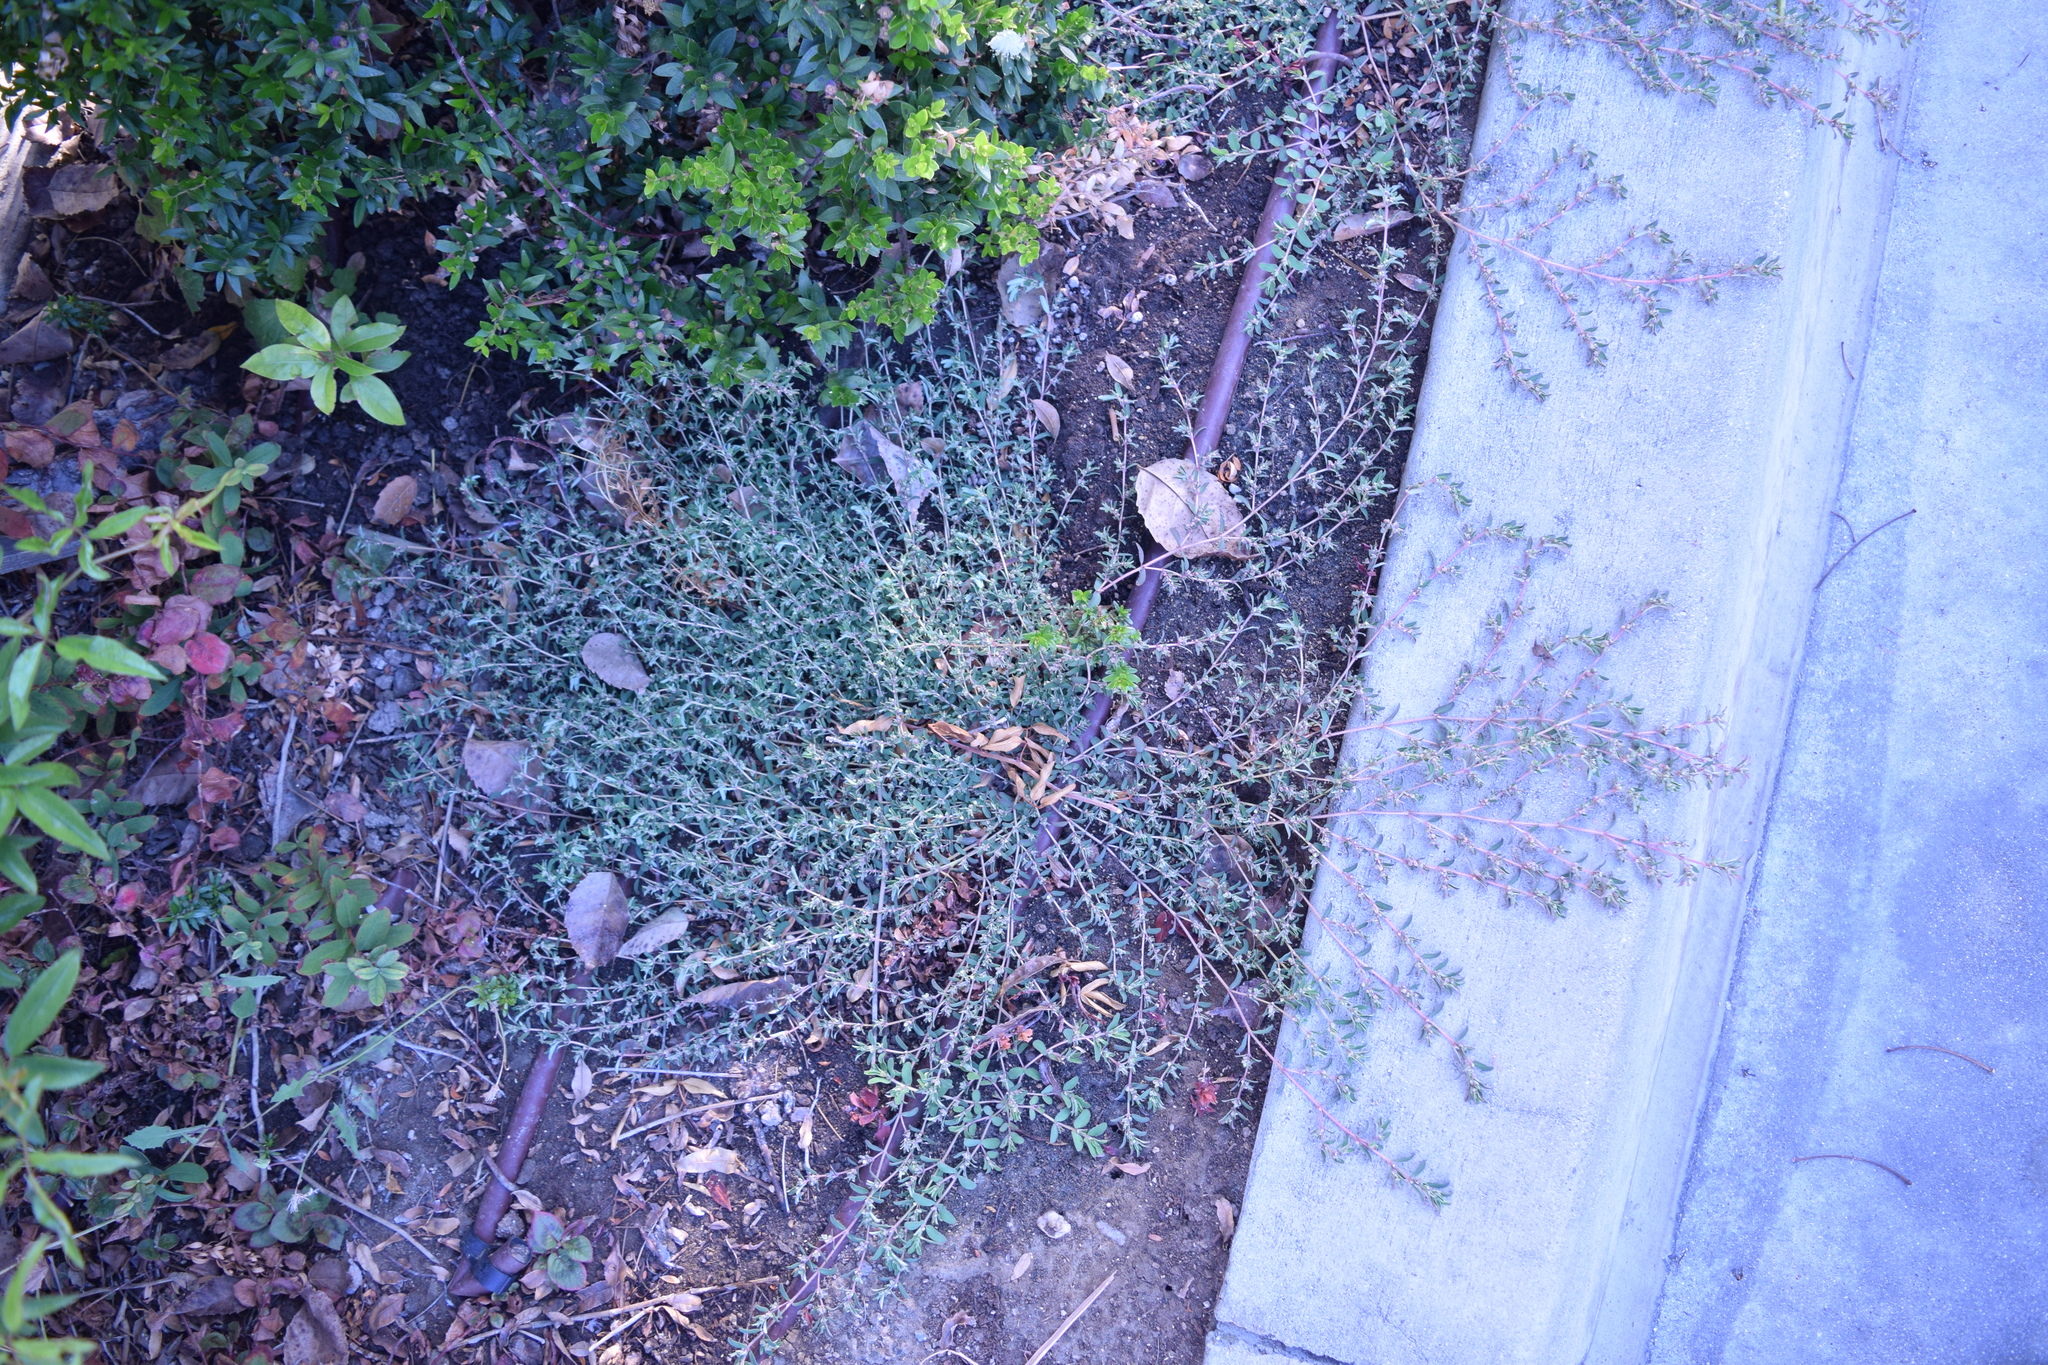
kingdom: Plantae
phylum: Tracheophyta
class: Magnoliopsida
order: Malpighiales
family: Euphorbiaceae
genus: Euphorbia
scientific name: Euphorbia maculata
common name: Spotted spurge
